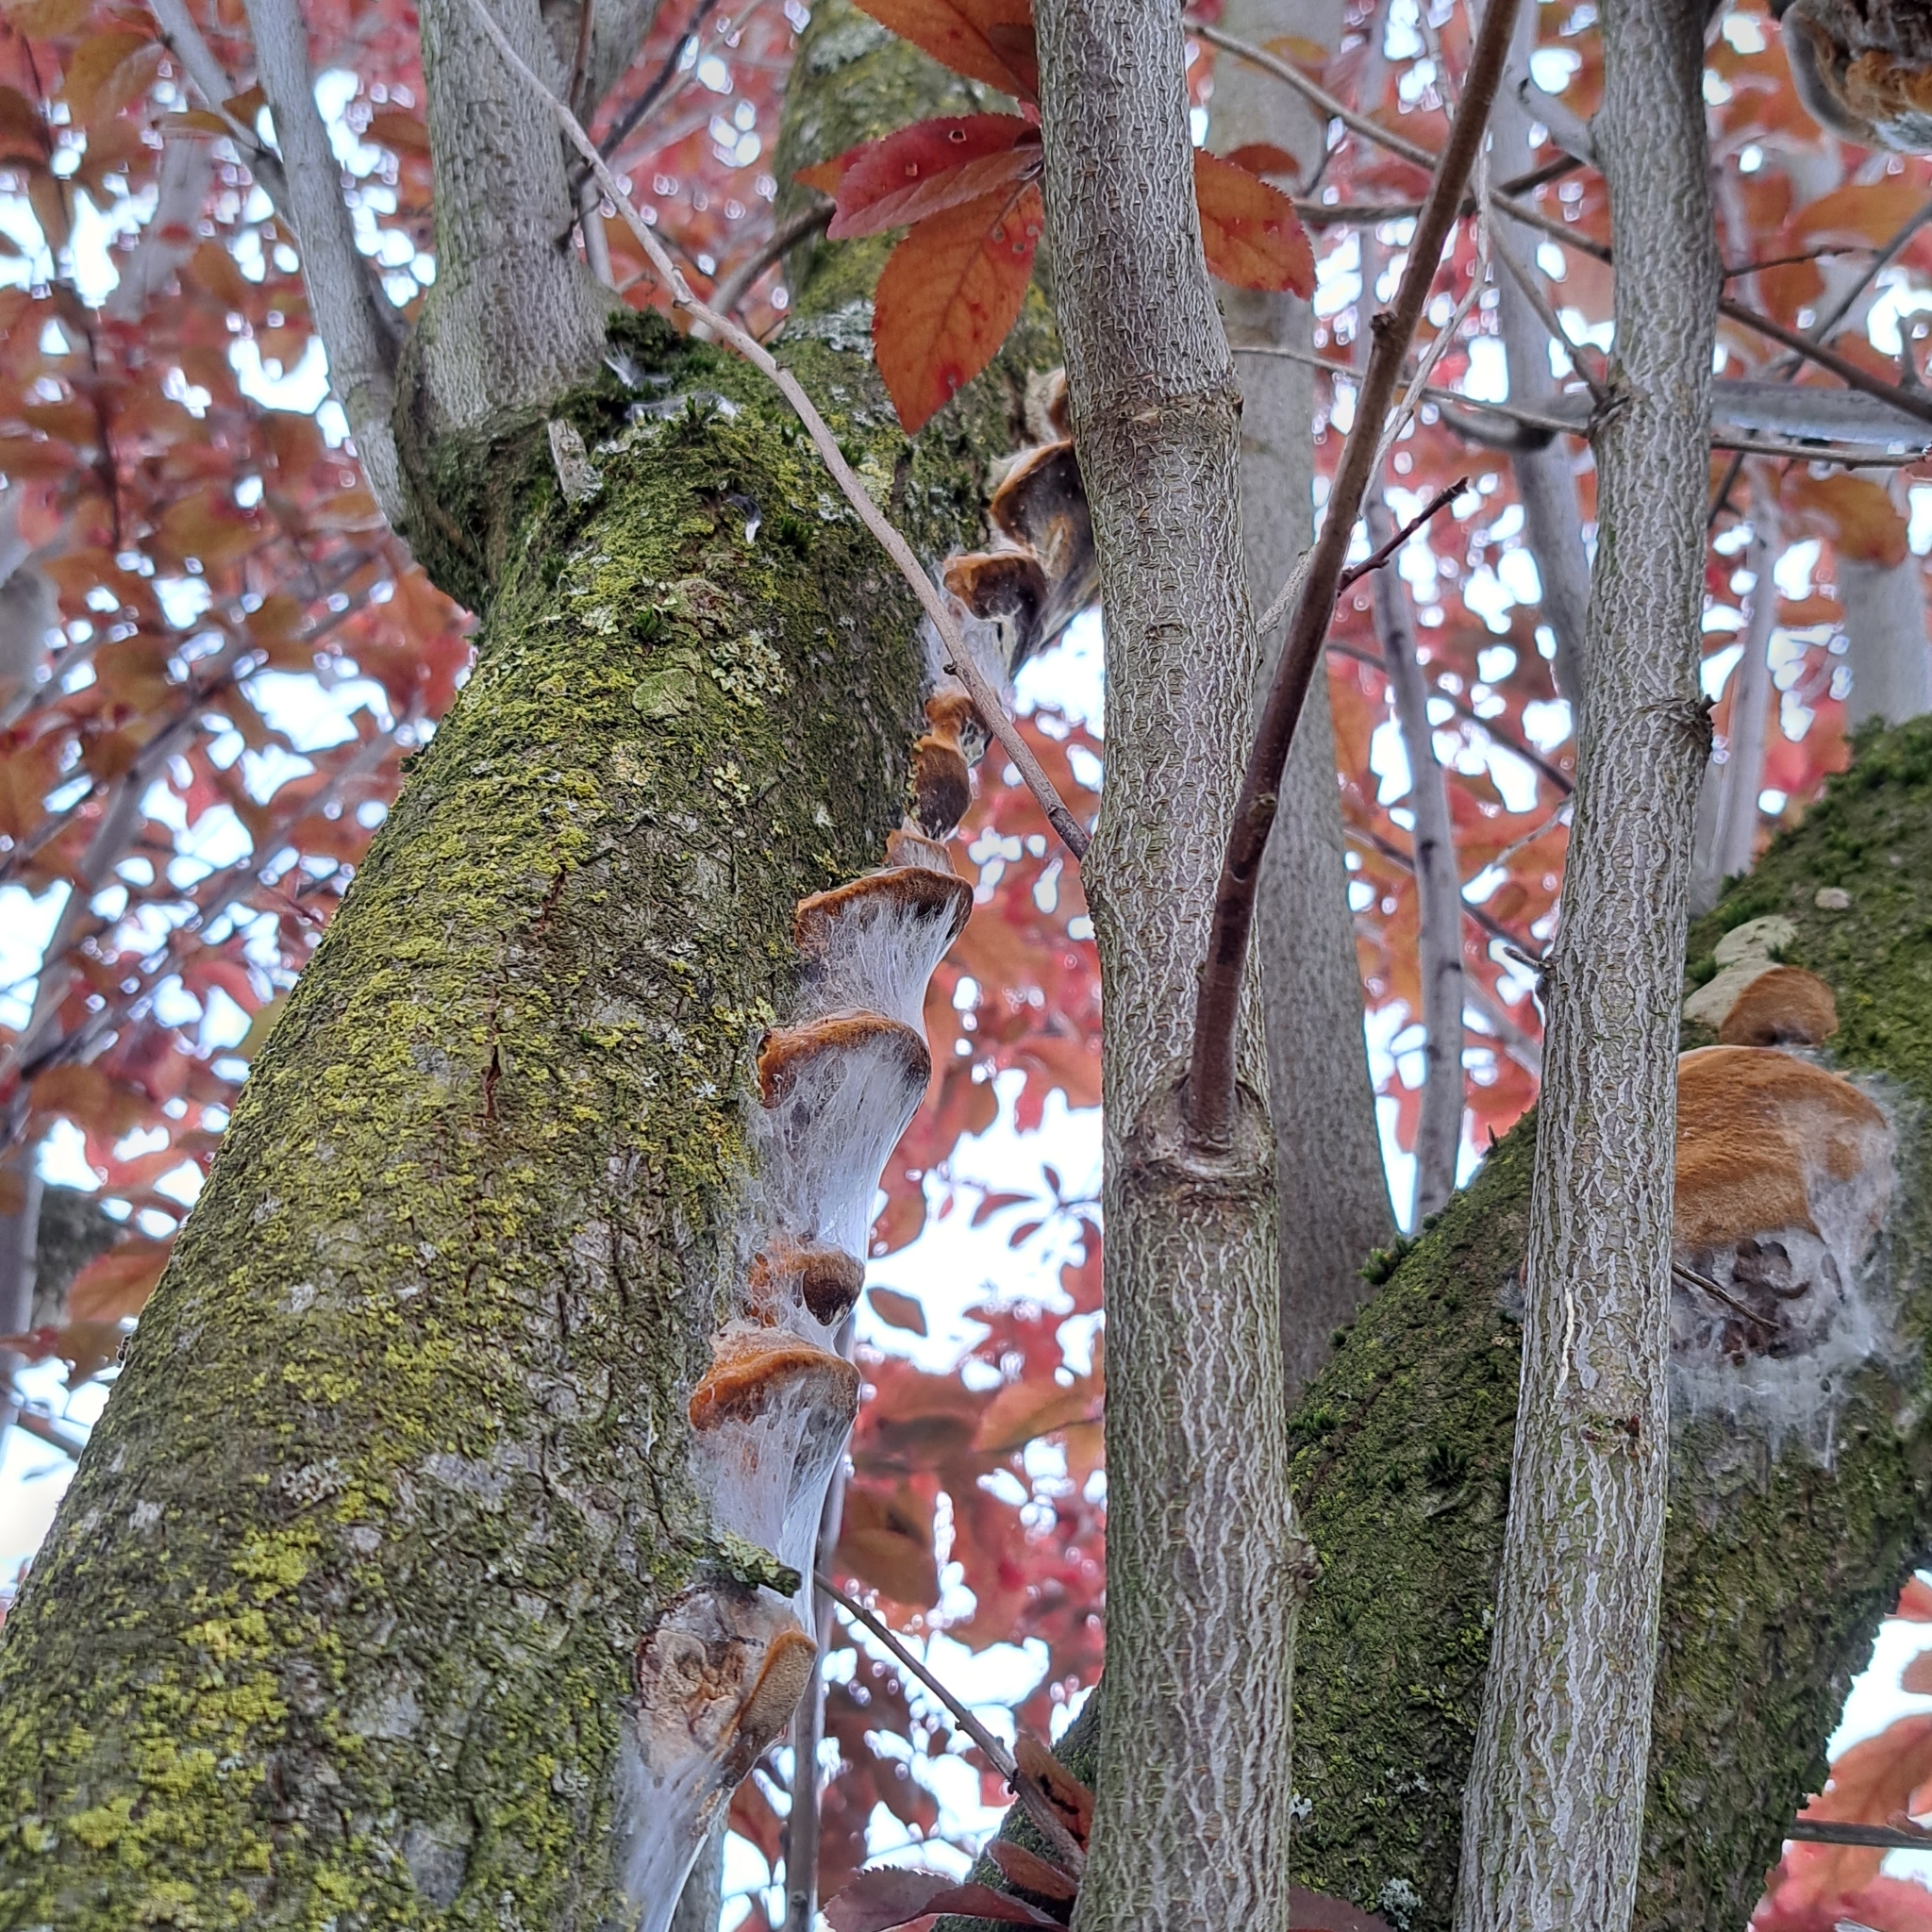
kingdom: Fungi
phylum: Basidiomycota
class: Agaricomycetes
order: Hymenochaetales
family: Hymenochaetaceae
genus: Phellinus
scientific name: Phellinus pomaceus
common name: Cushion bracket
